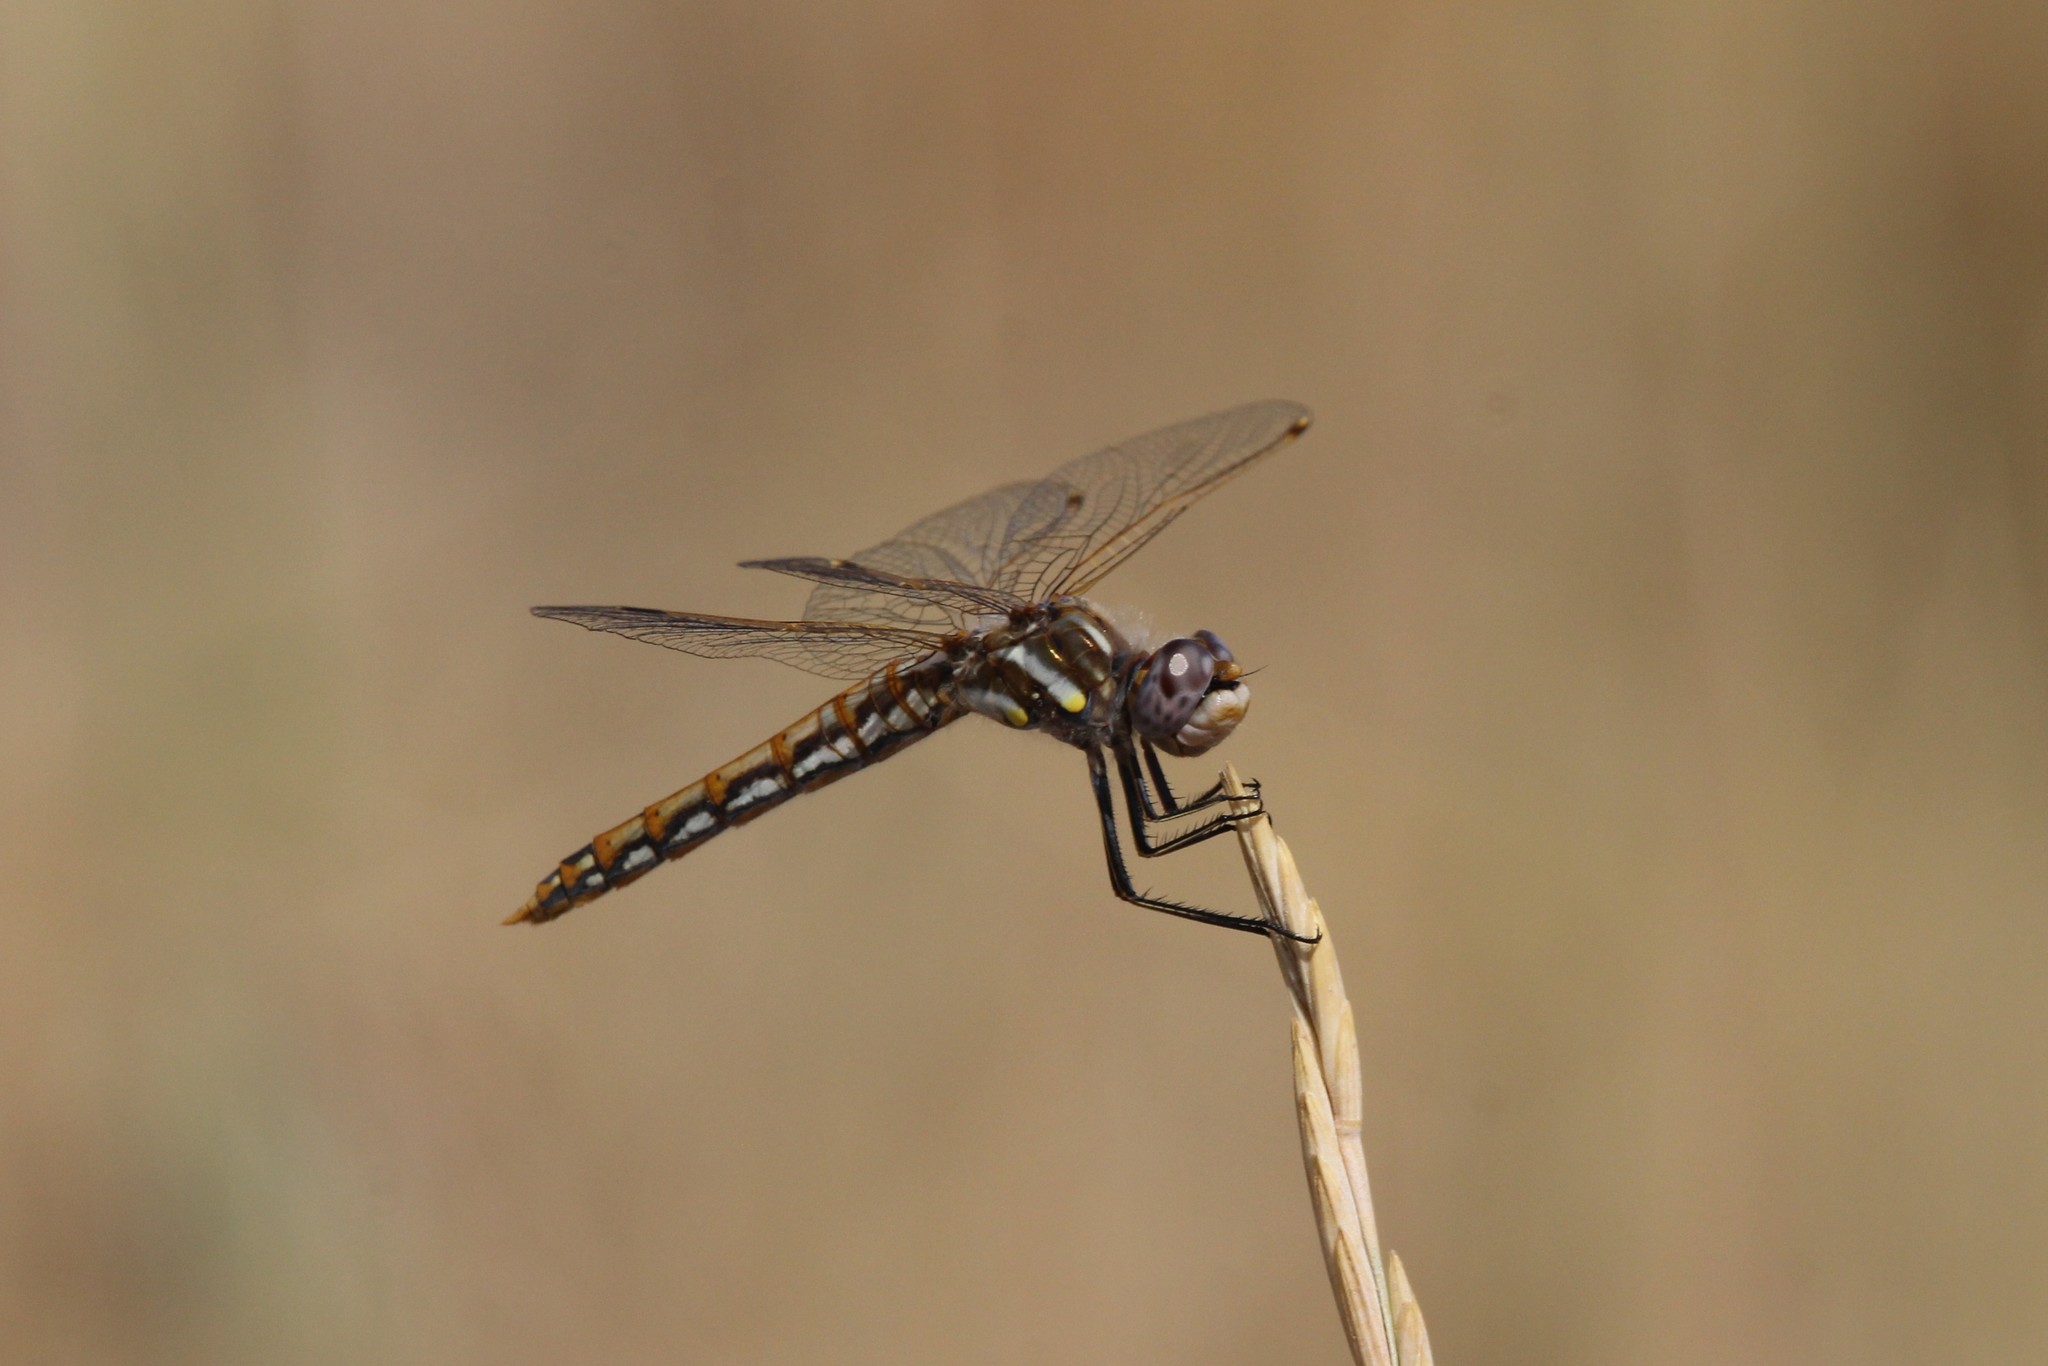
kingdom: Animalia
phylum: Arthropoda
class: Insecta
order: Odonata
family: Libellulidae
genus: Sympetrum
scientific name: Sympetrum corruptum
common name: Variegated meadowhawk
